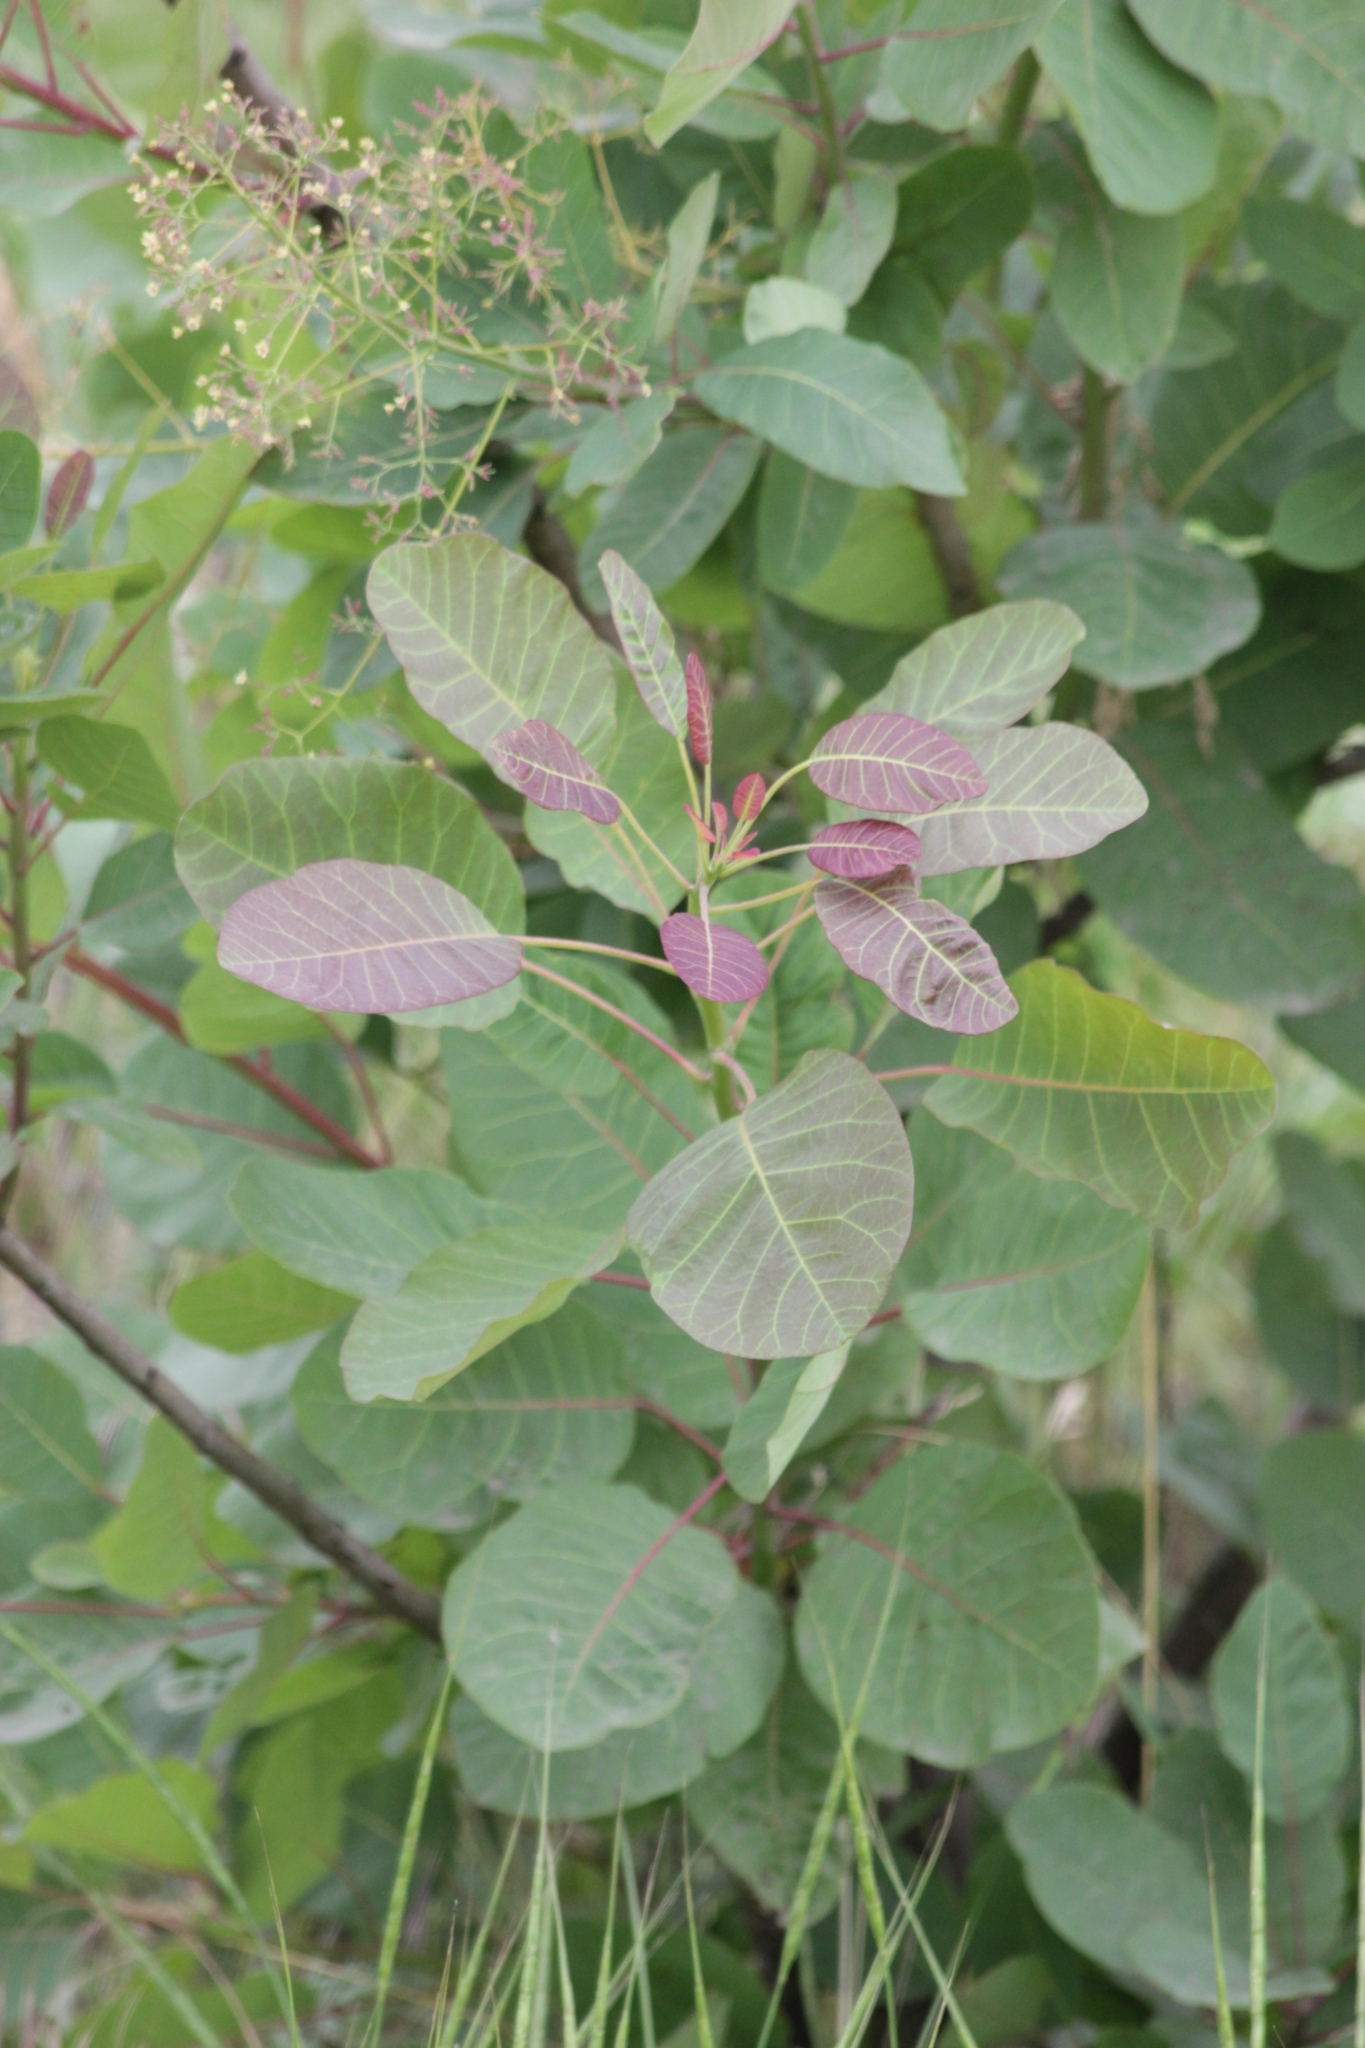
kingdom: Plantae
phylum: Tracheophyta
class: Magnoliopsida
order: Sapindales
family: Anacardiaceae
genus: Cotinus
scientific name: Cotinus coggygria
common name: Smoke-tree
